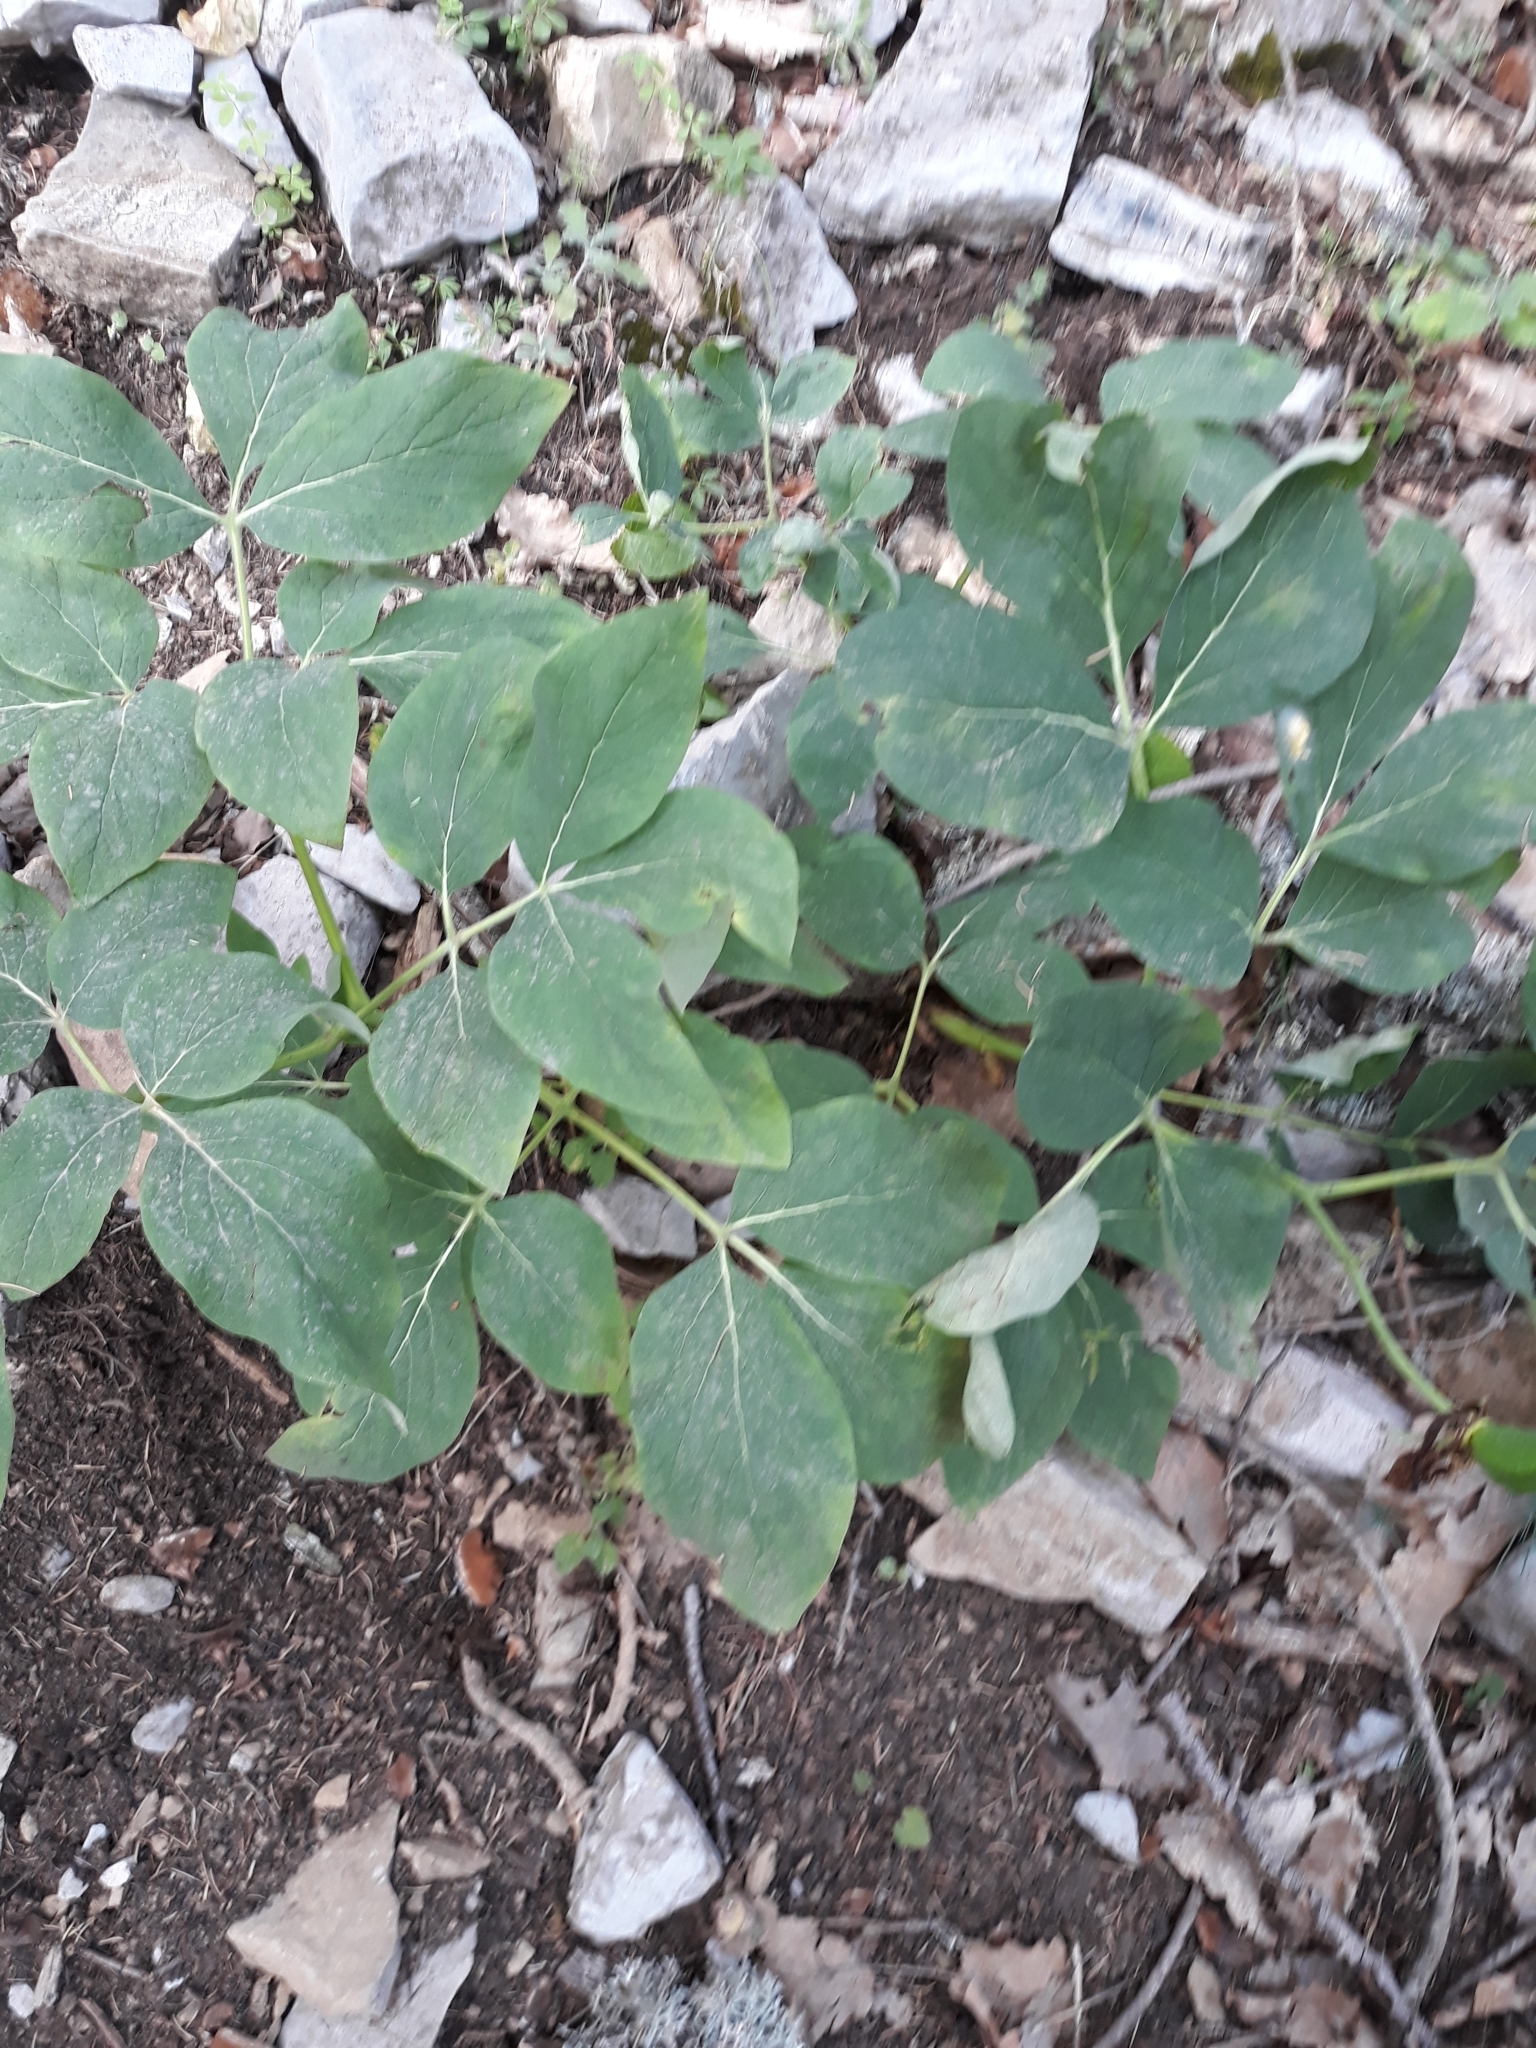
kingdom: Plantae
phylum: Tracheophyta
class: Magnoliopsida
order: Saxifragales
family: Paeoniaceae
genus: Paeonia
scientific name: Paeonia algeriensis
